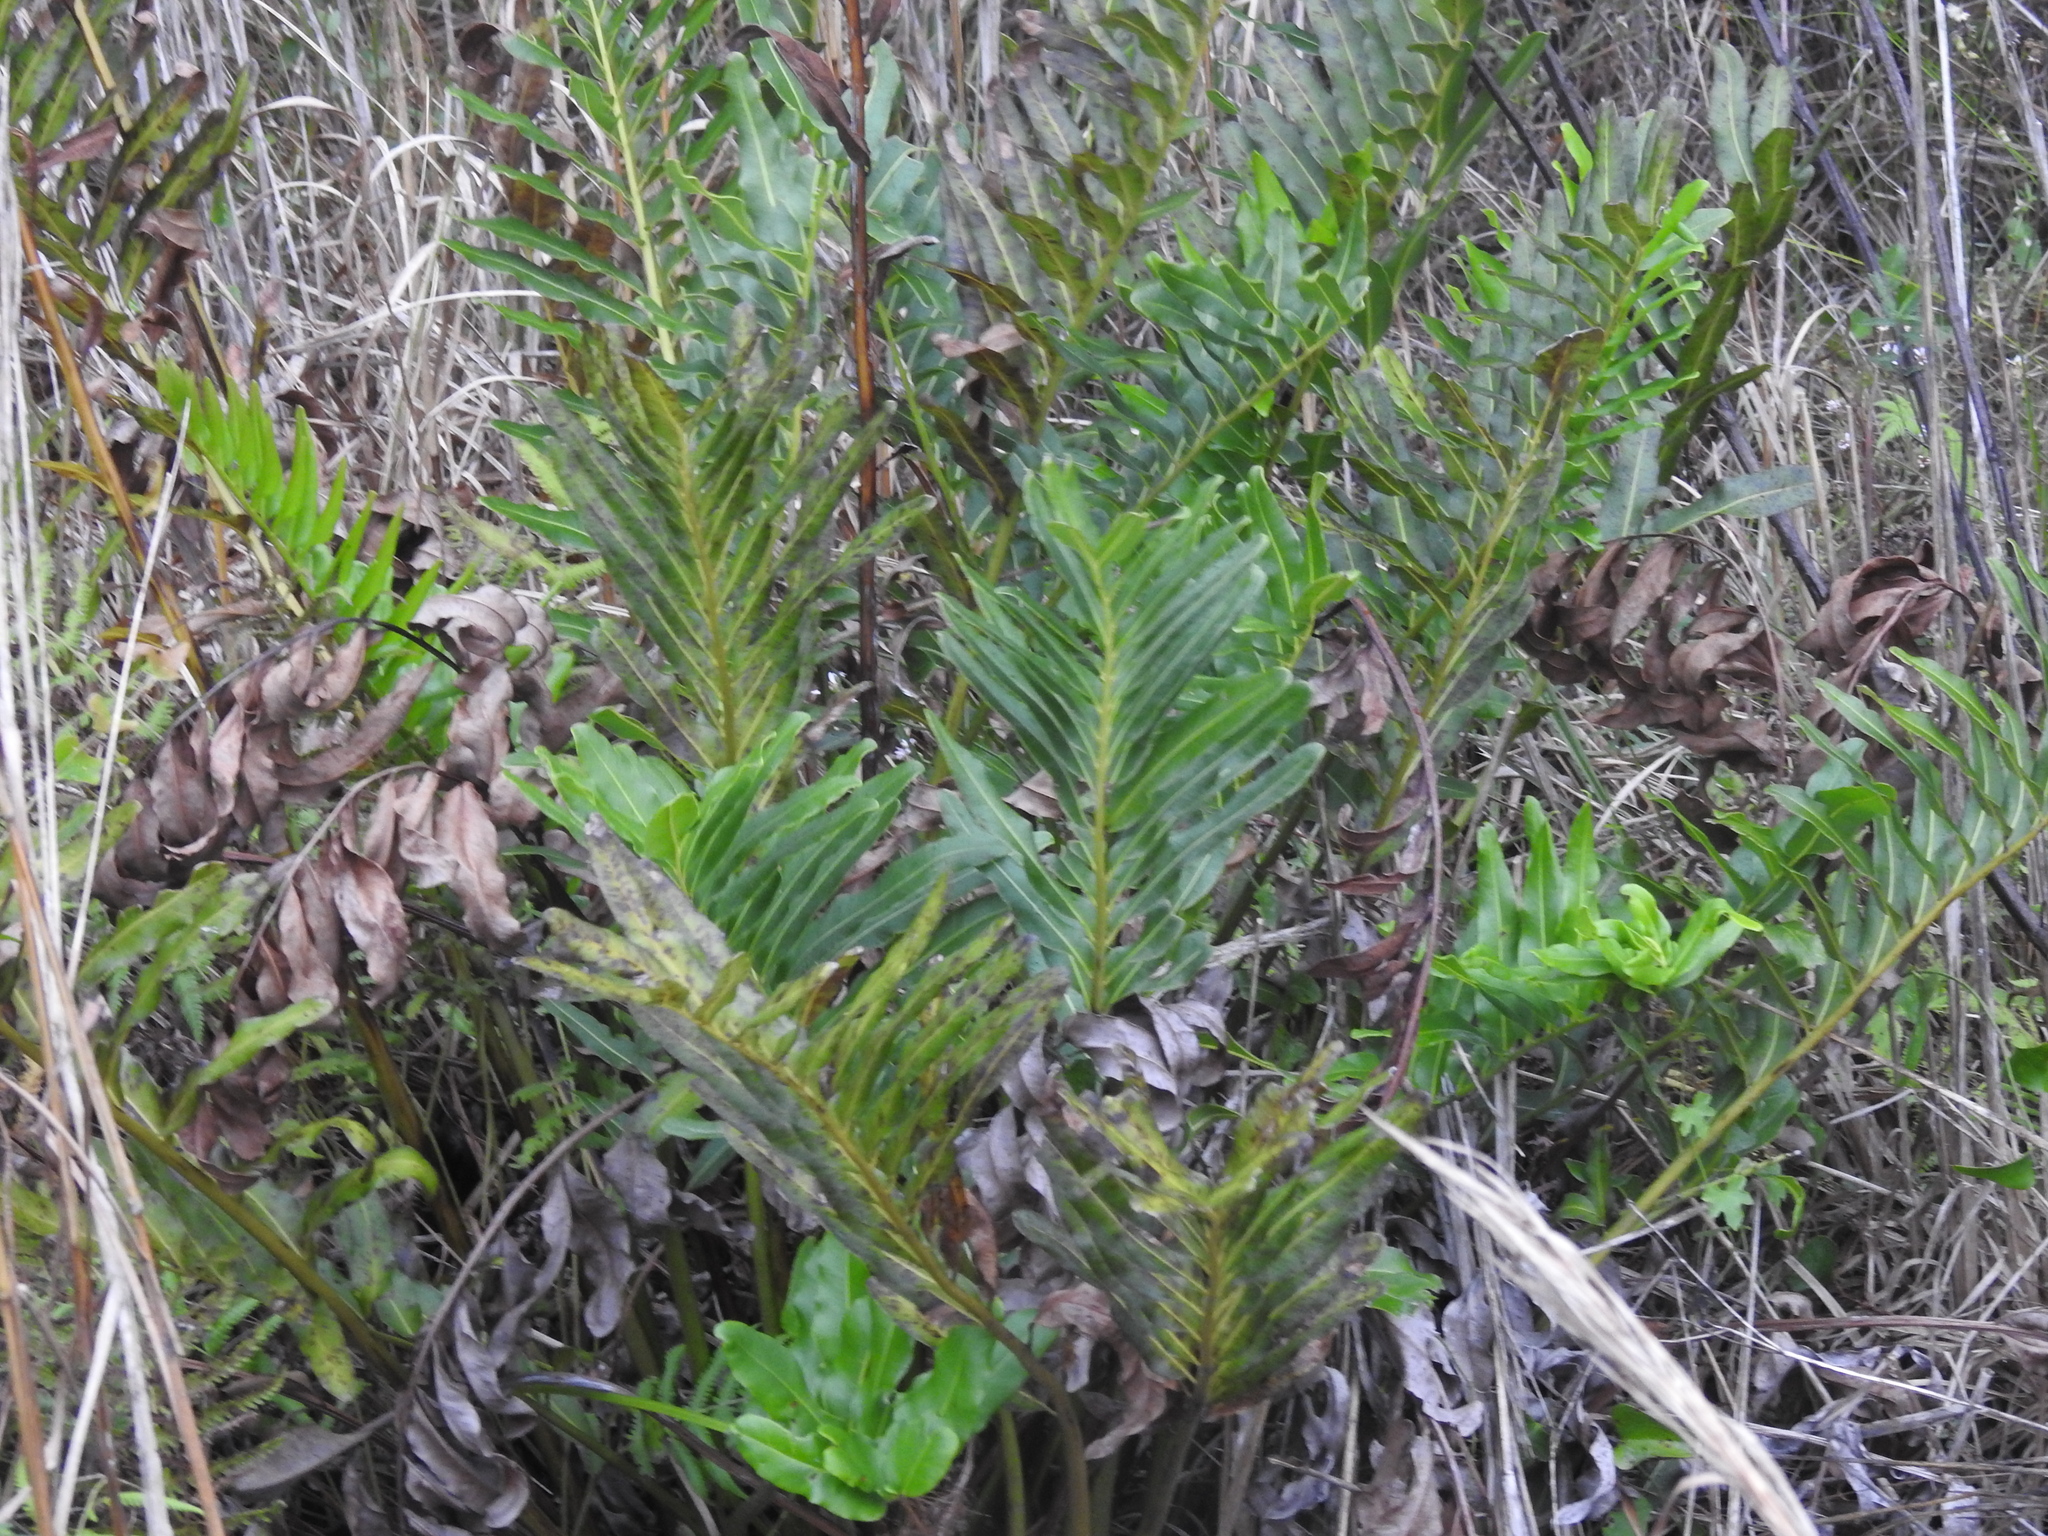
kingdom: Plantae
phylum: Tracheophyta
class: Polypodiopsida
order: Polypodiales
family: Pteridaceae
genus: Acrostichum
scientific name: Acrostichum danaeifolium
